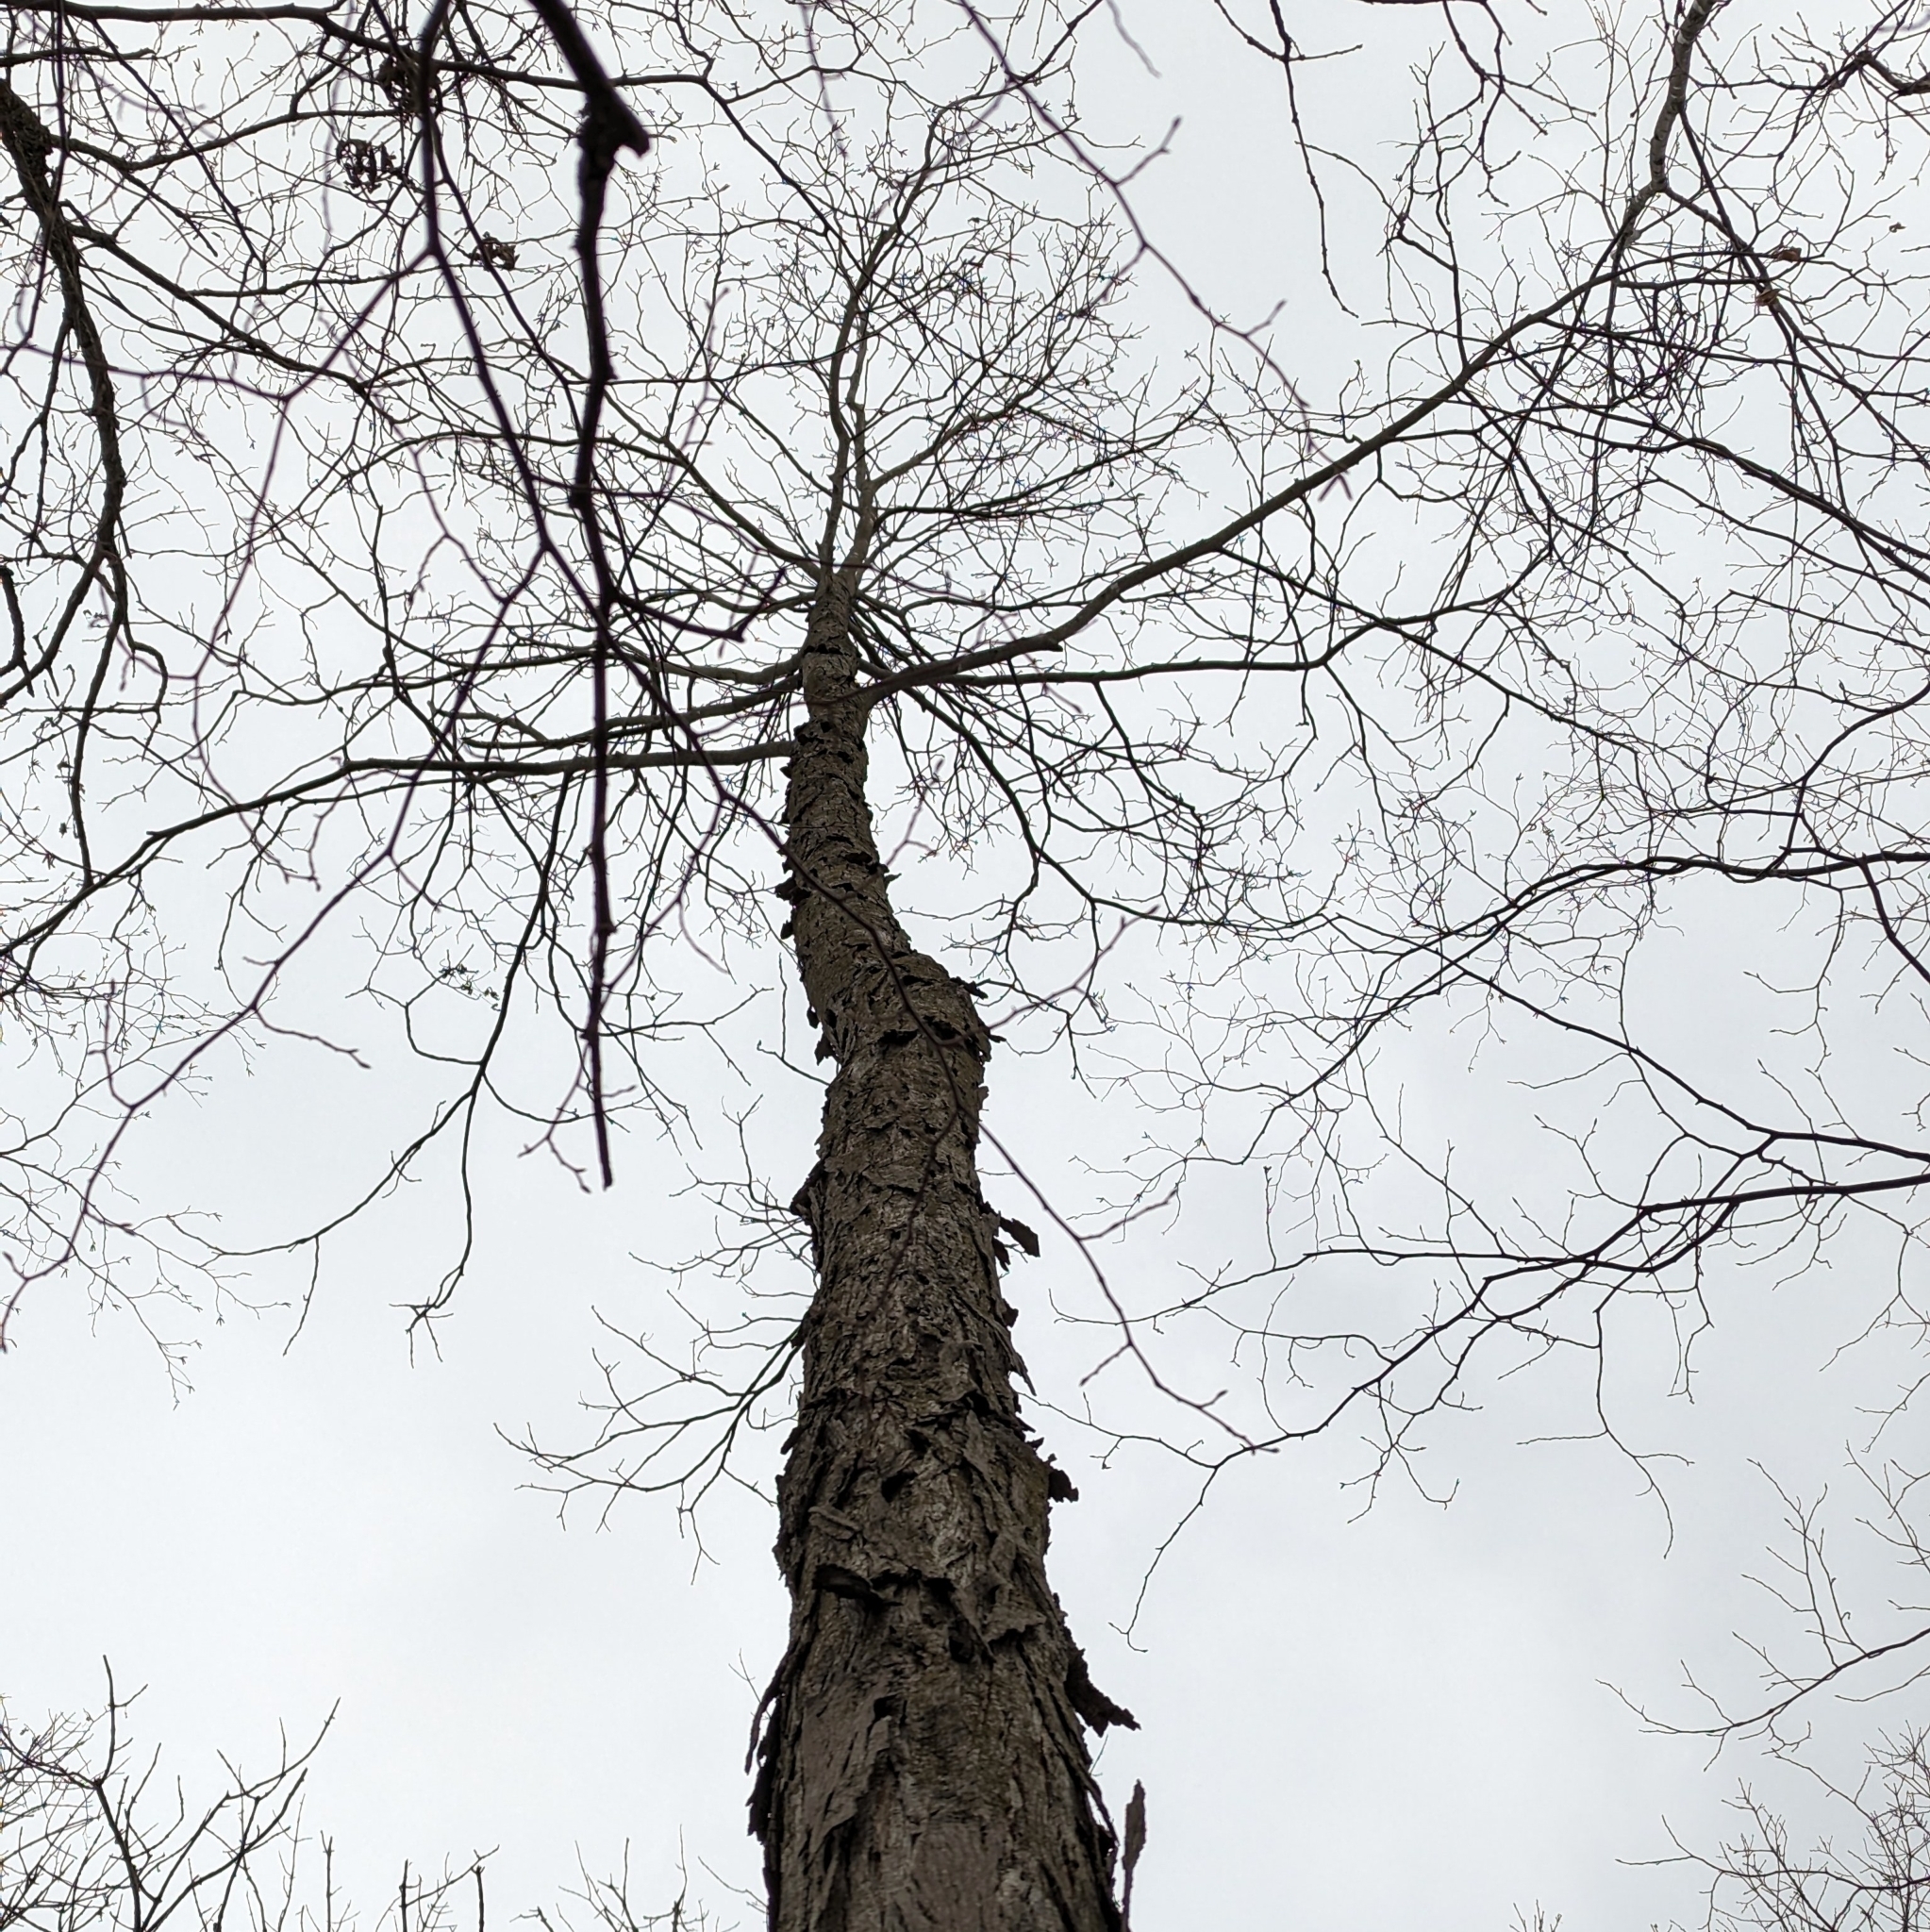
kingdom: Plantae
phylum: Tracheophyta
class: Magnoliopsida
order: Fagales
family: Juglandaceae
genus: Carya
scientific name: Carya ovata
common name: Shagbark hickory
